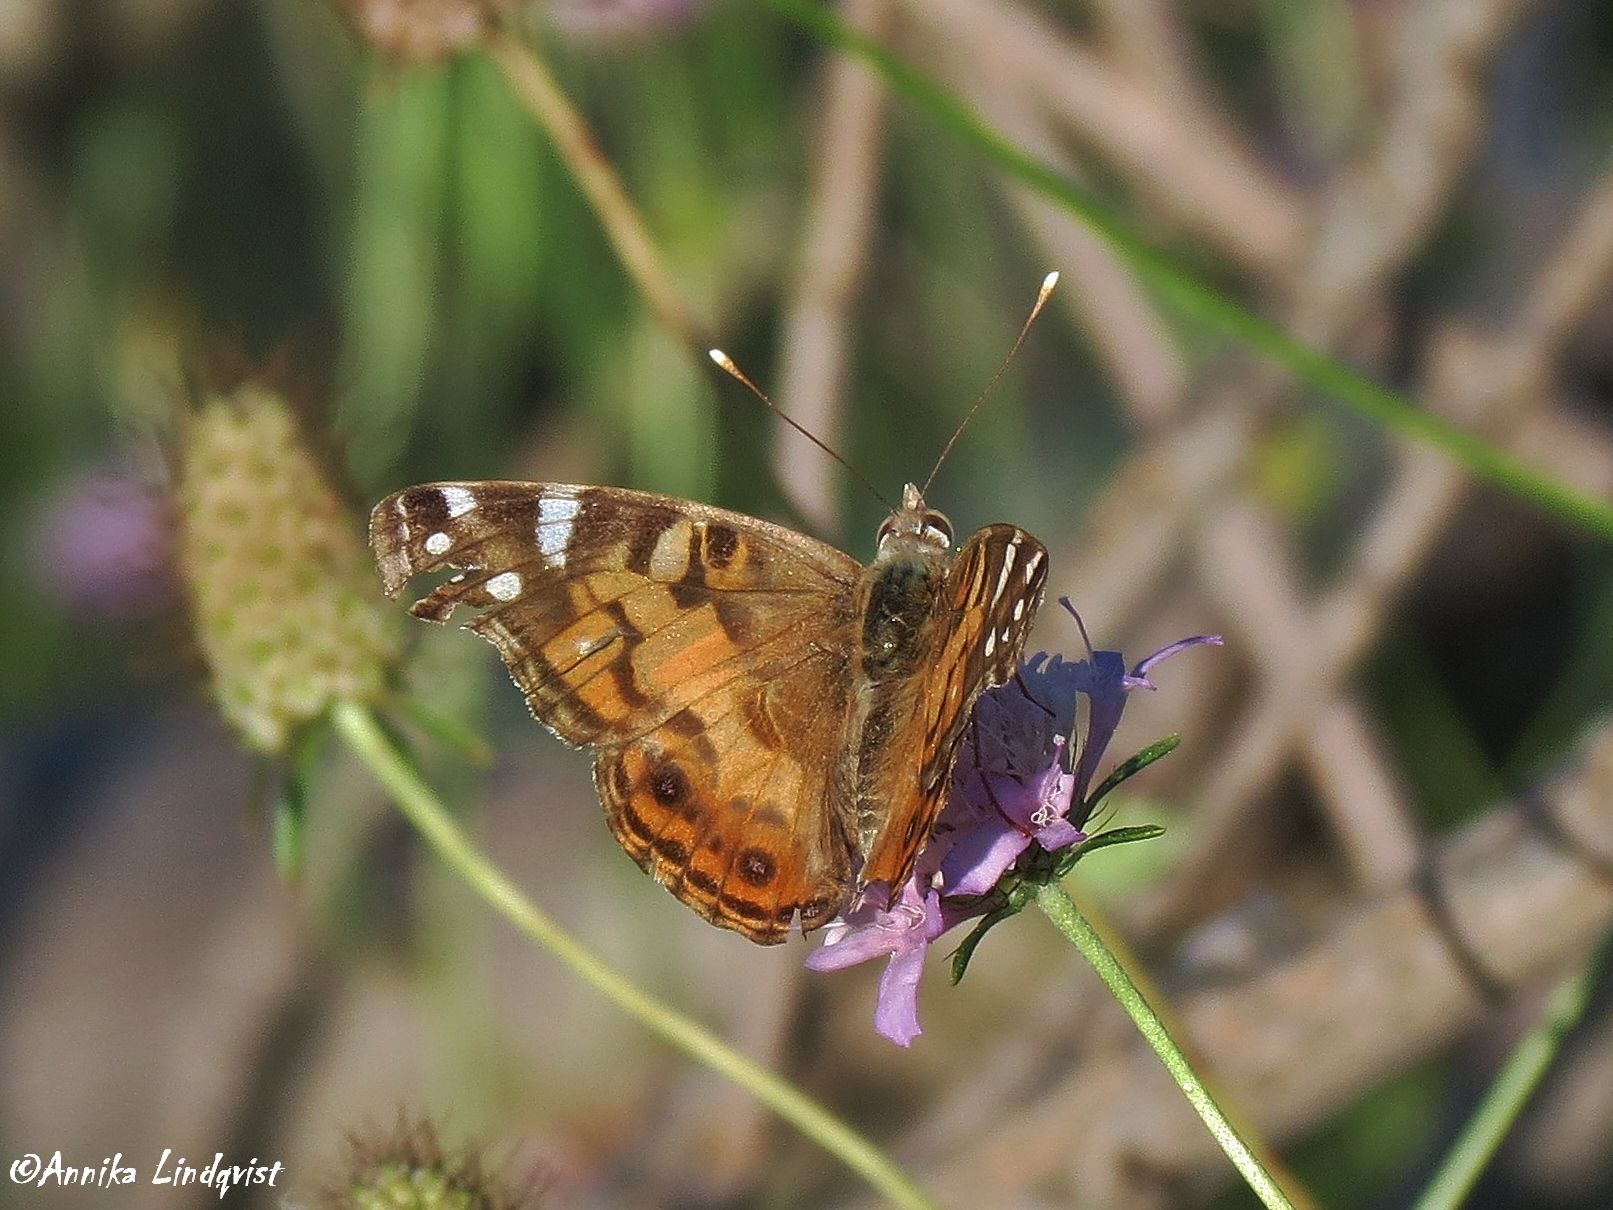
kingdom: Animalia
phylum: Arthropoda
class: Insecta
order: Lepidoptera
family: Nymphalidae
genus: Vanessa
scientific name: Vanessa virginiensis
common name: American lady
